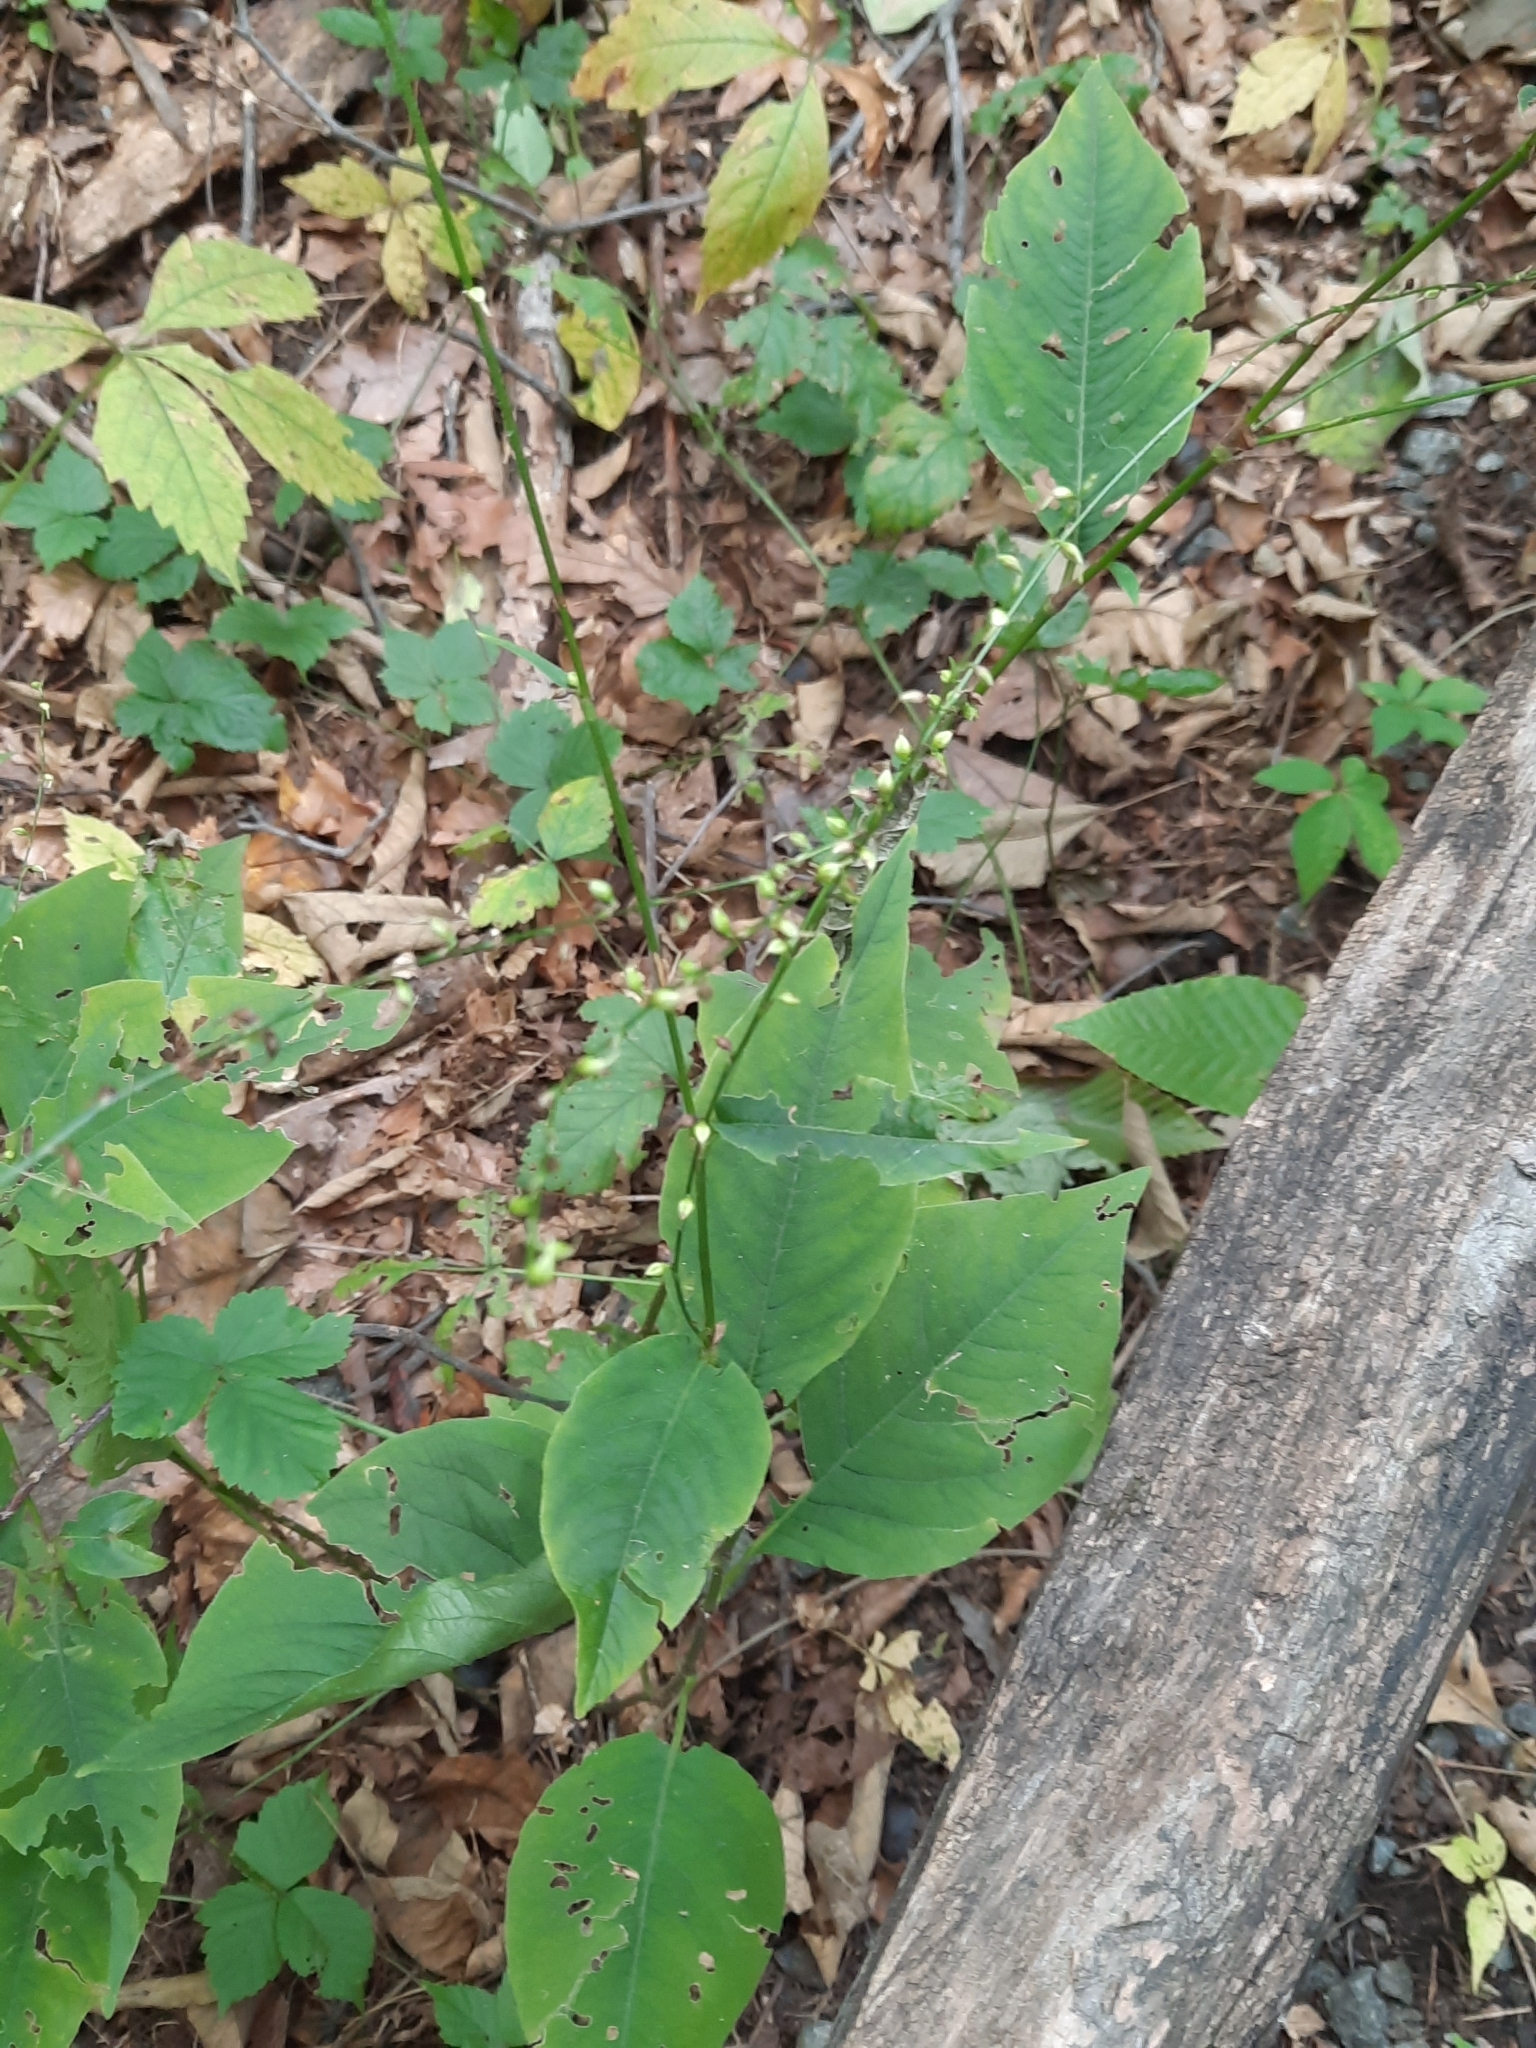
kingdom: Plantae
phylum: Tracheophyta
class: Magnoliopsida
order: Caryophyllales
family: Polygonaceae
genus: Persicaria
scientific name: Persicaria virginiana
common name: Jumpseed
